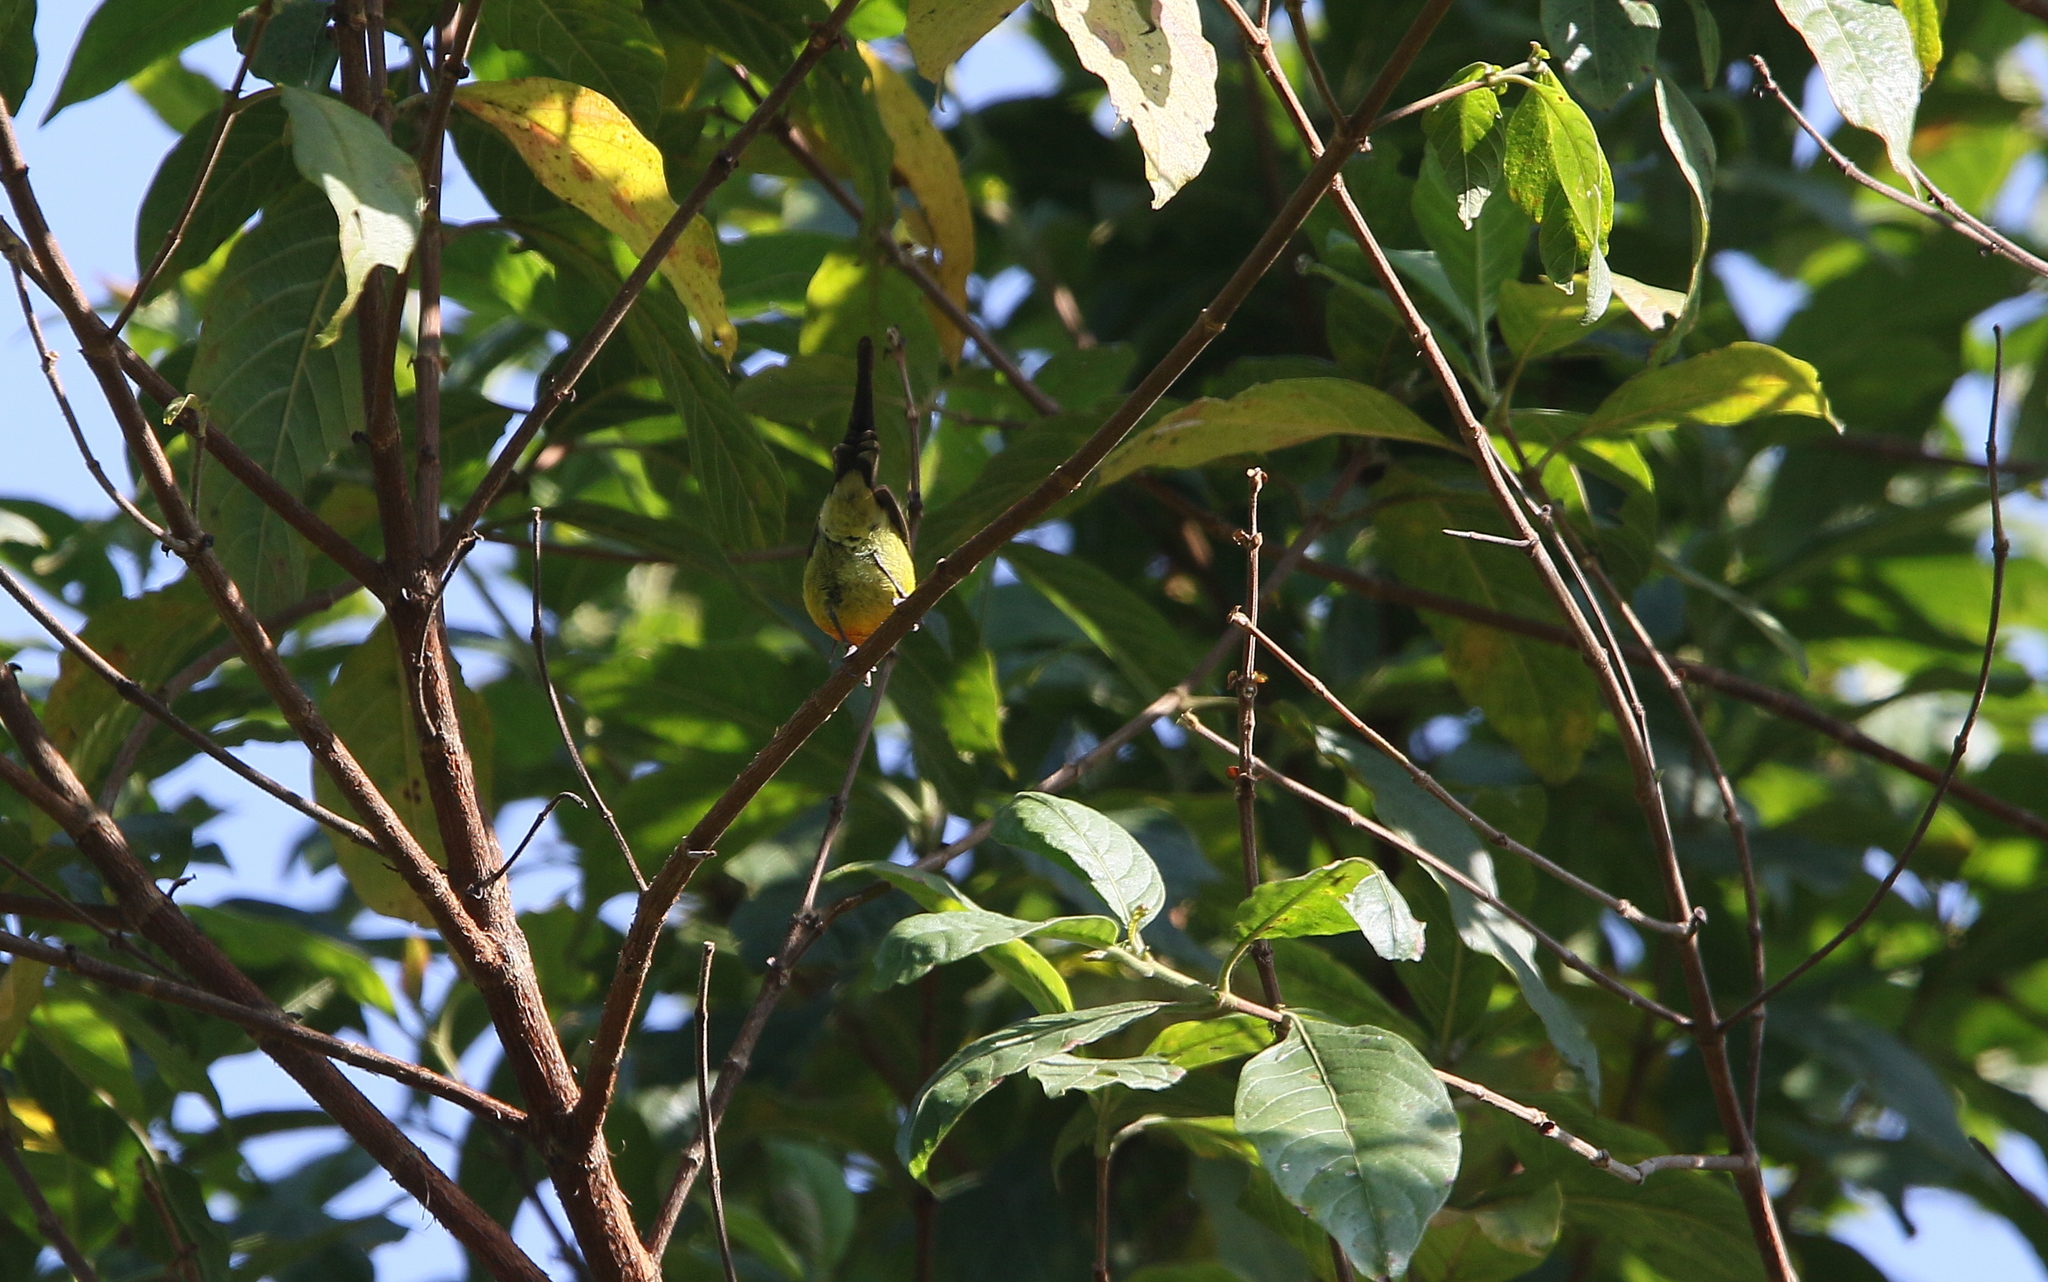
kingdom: Animalia
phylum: Chordata
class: Aves
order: Passeriformes
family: Nectariniidae
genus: Aethopyga
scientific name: Aethopyga gouldiae
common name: Mrs. gould's sunbird
